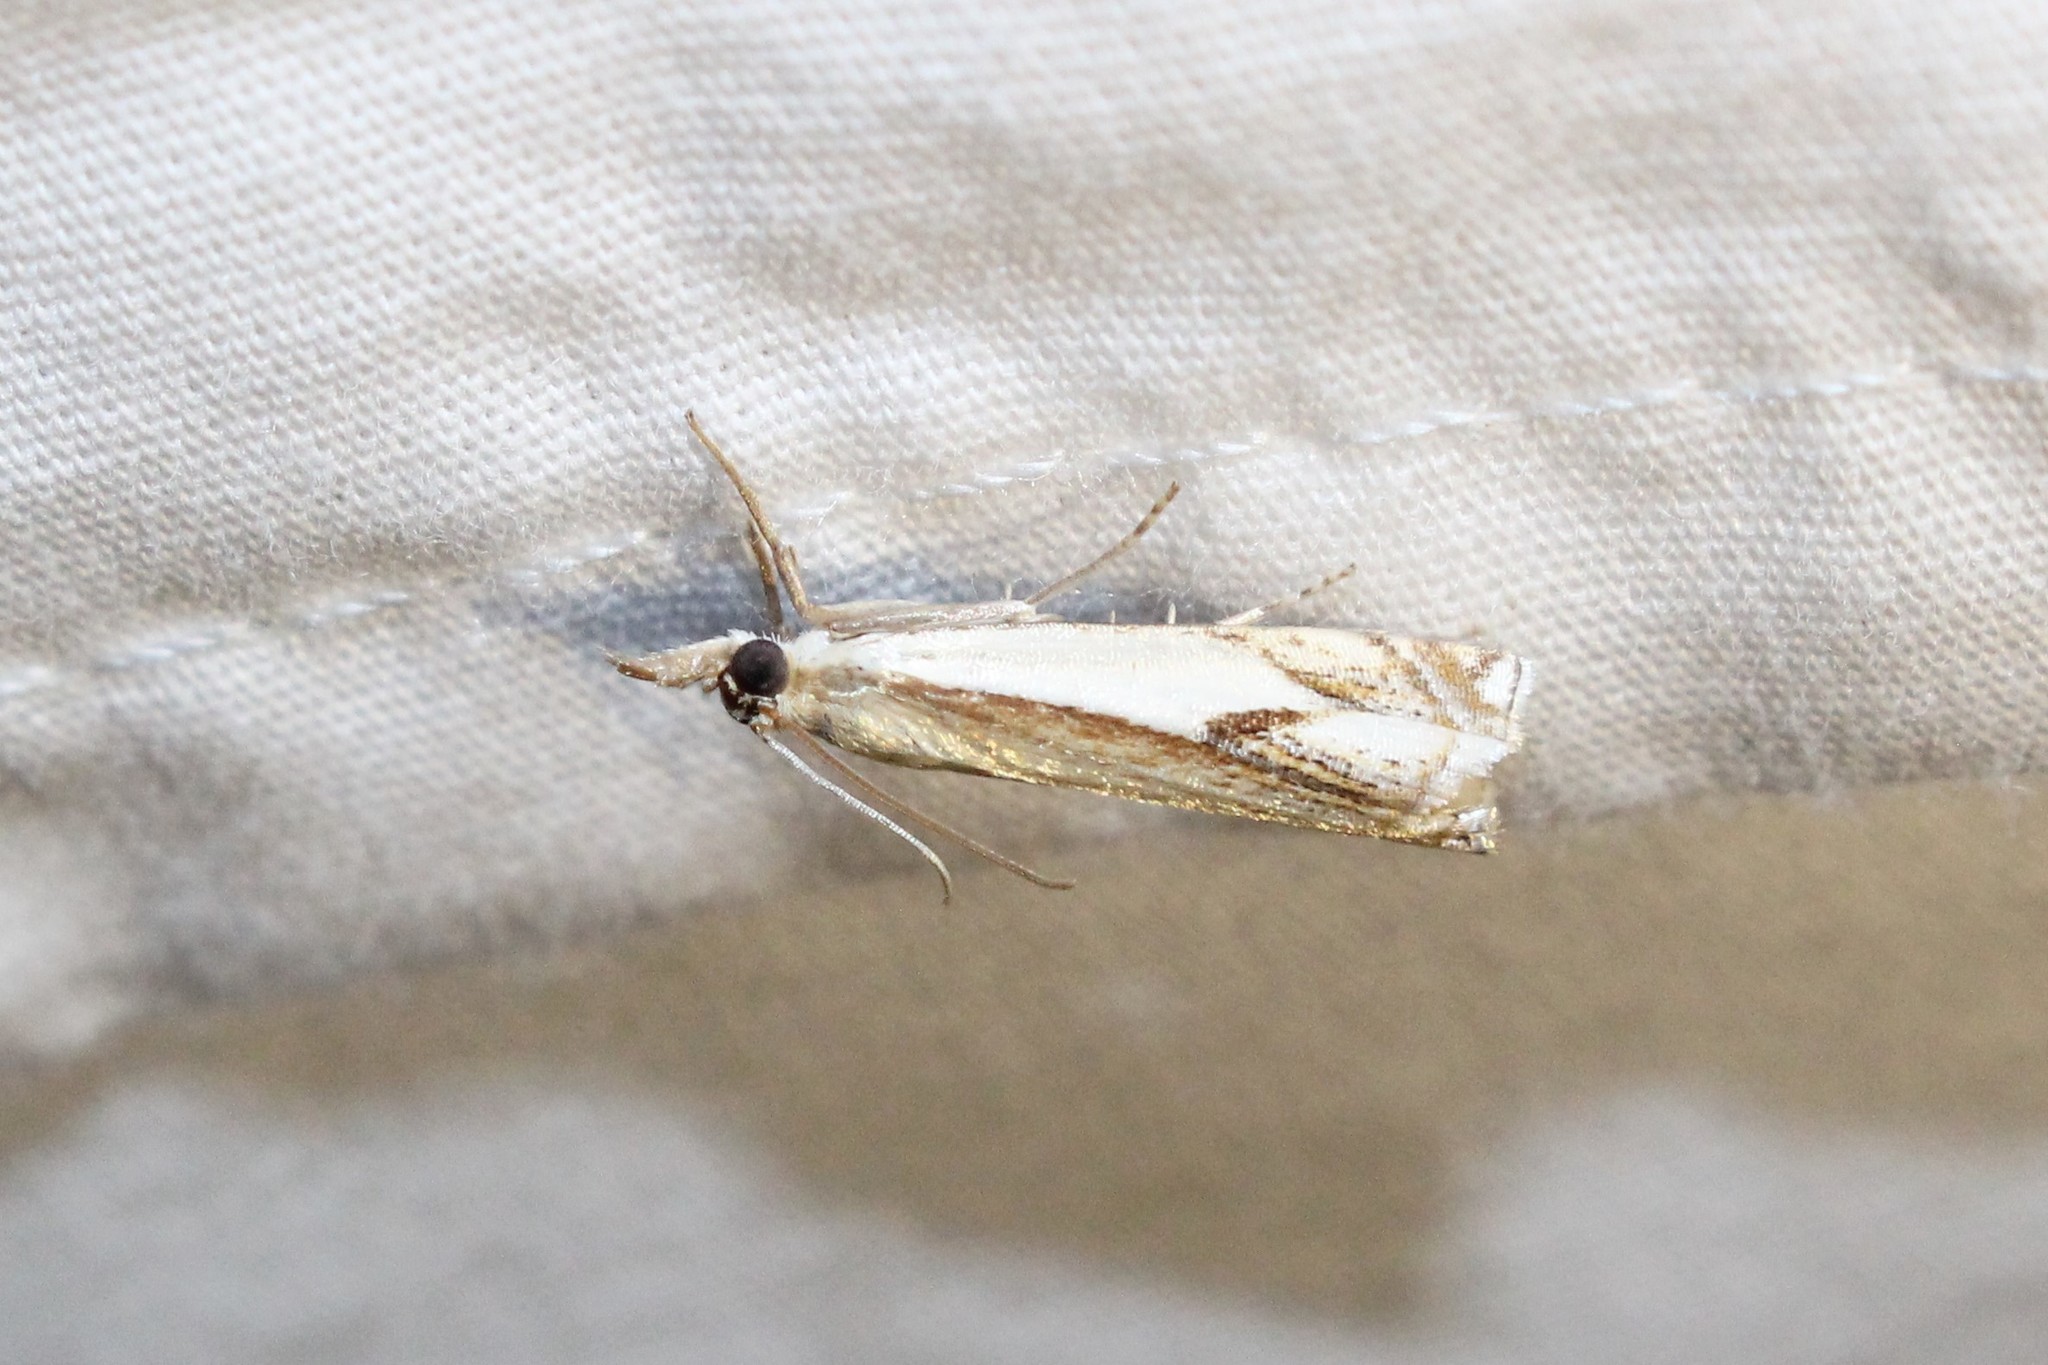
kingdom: Animalia
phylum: Arthropoda
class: Insecta
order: Lepidoptera
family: Crambidae
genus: Crambus
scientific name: Crambus agitatellus
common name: Double-banded grass-veneer
